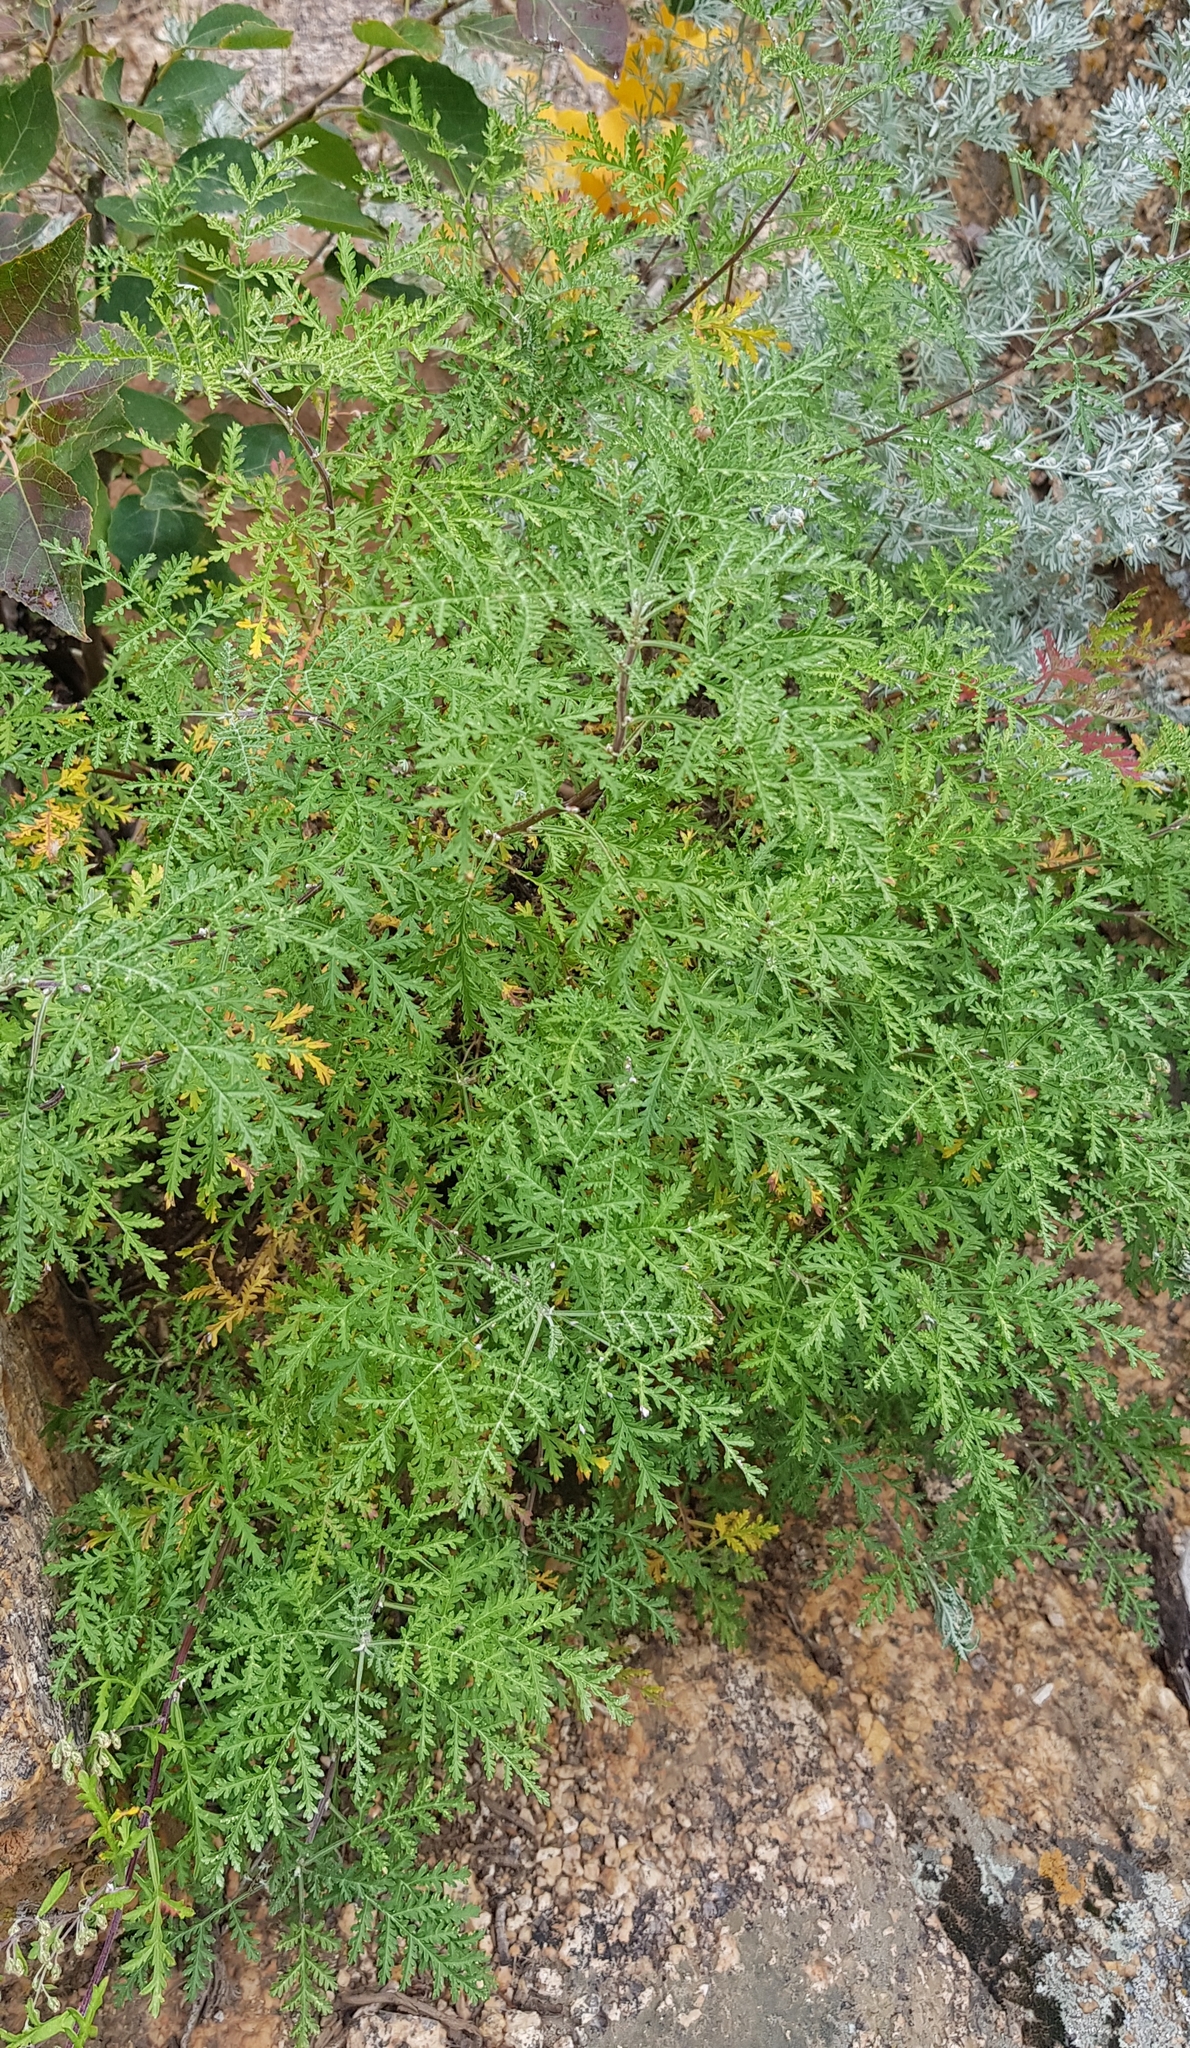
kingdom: Plantae
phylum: Tracheophyta
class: Magnoliopsida
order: Asterales
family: Asteraceae
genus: Artemisia
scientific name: Artemisia gmelinii
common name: Gmelin's wormwood
